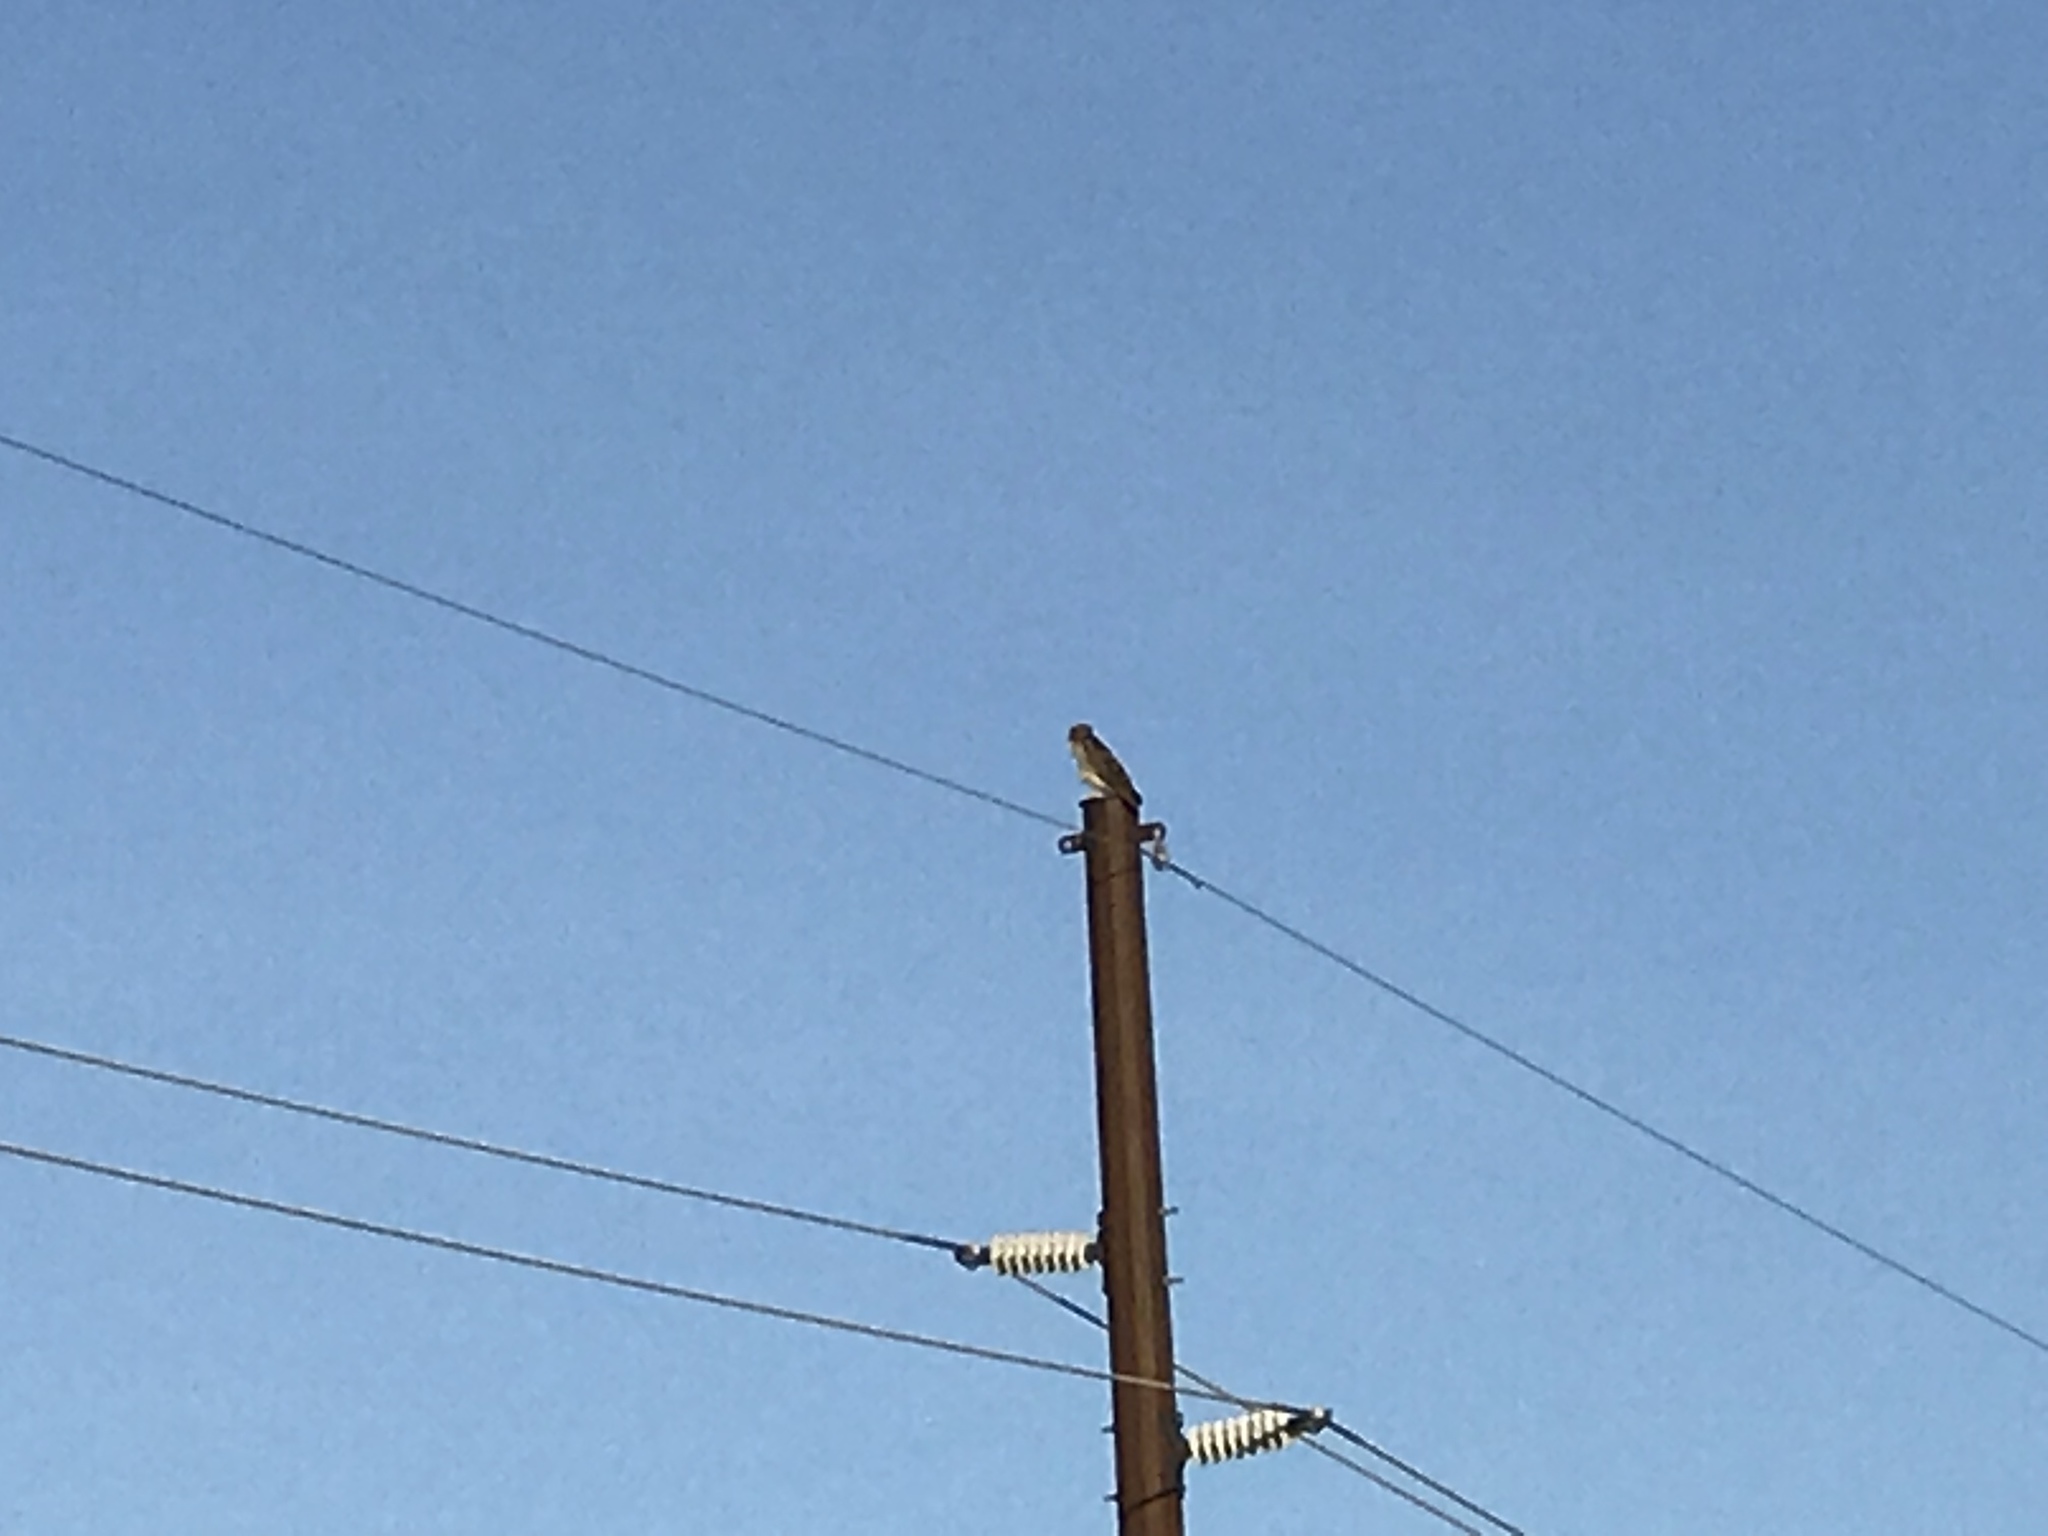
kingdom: Animalia
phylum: Chordata
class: Aves
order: Accipitriformes
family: Accipitridae
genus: Buteo
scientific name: Buteo jamaicensis
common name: Red-tailed hawk
